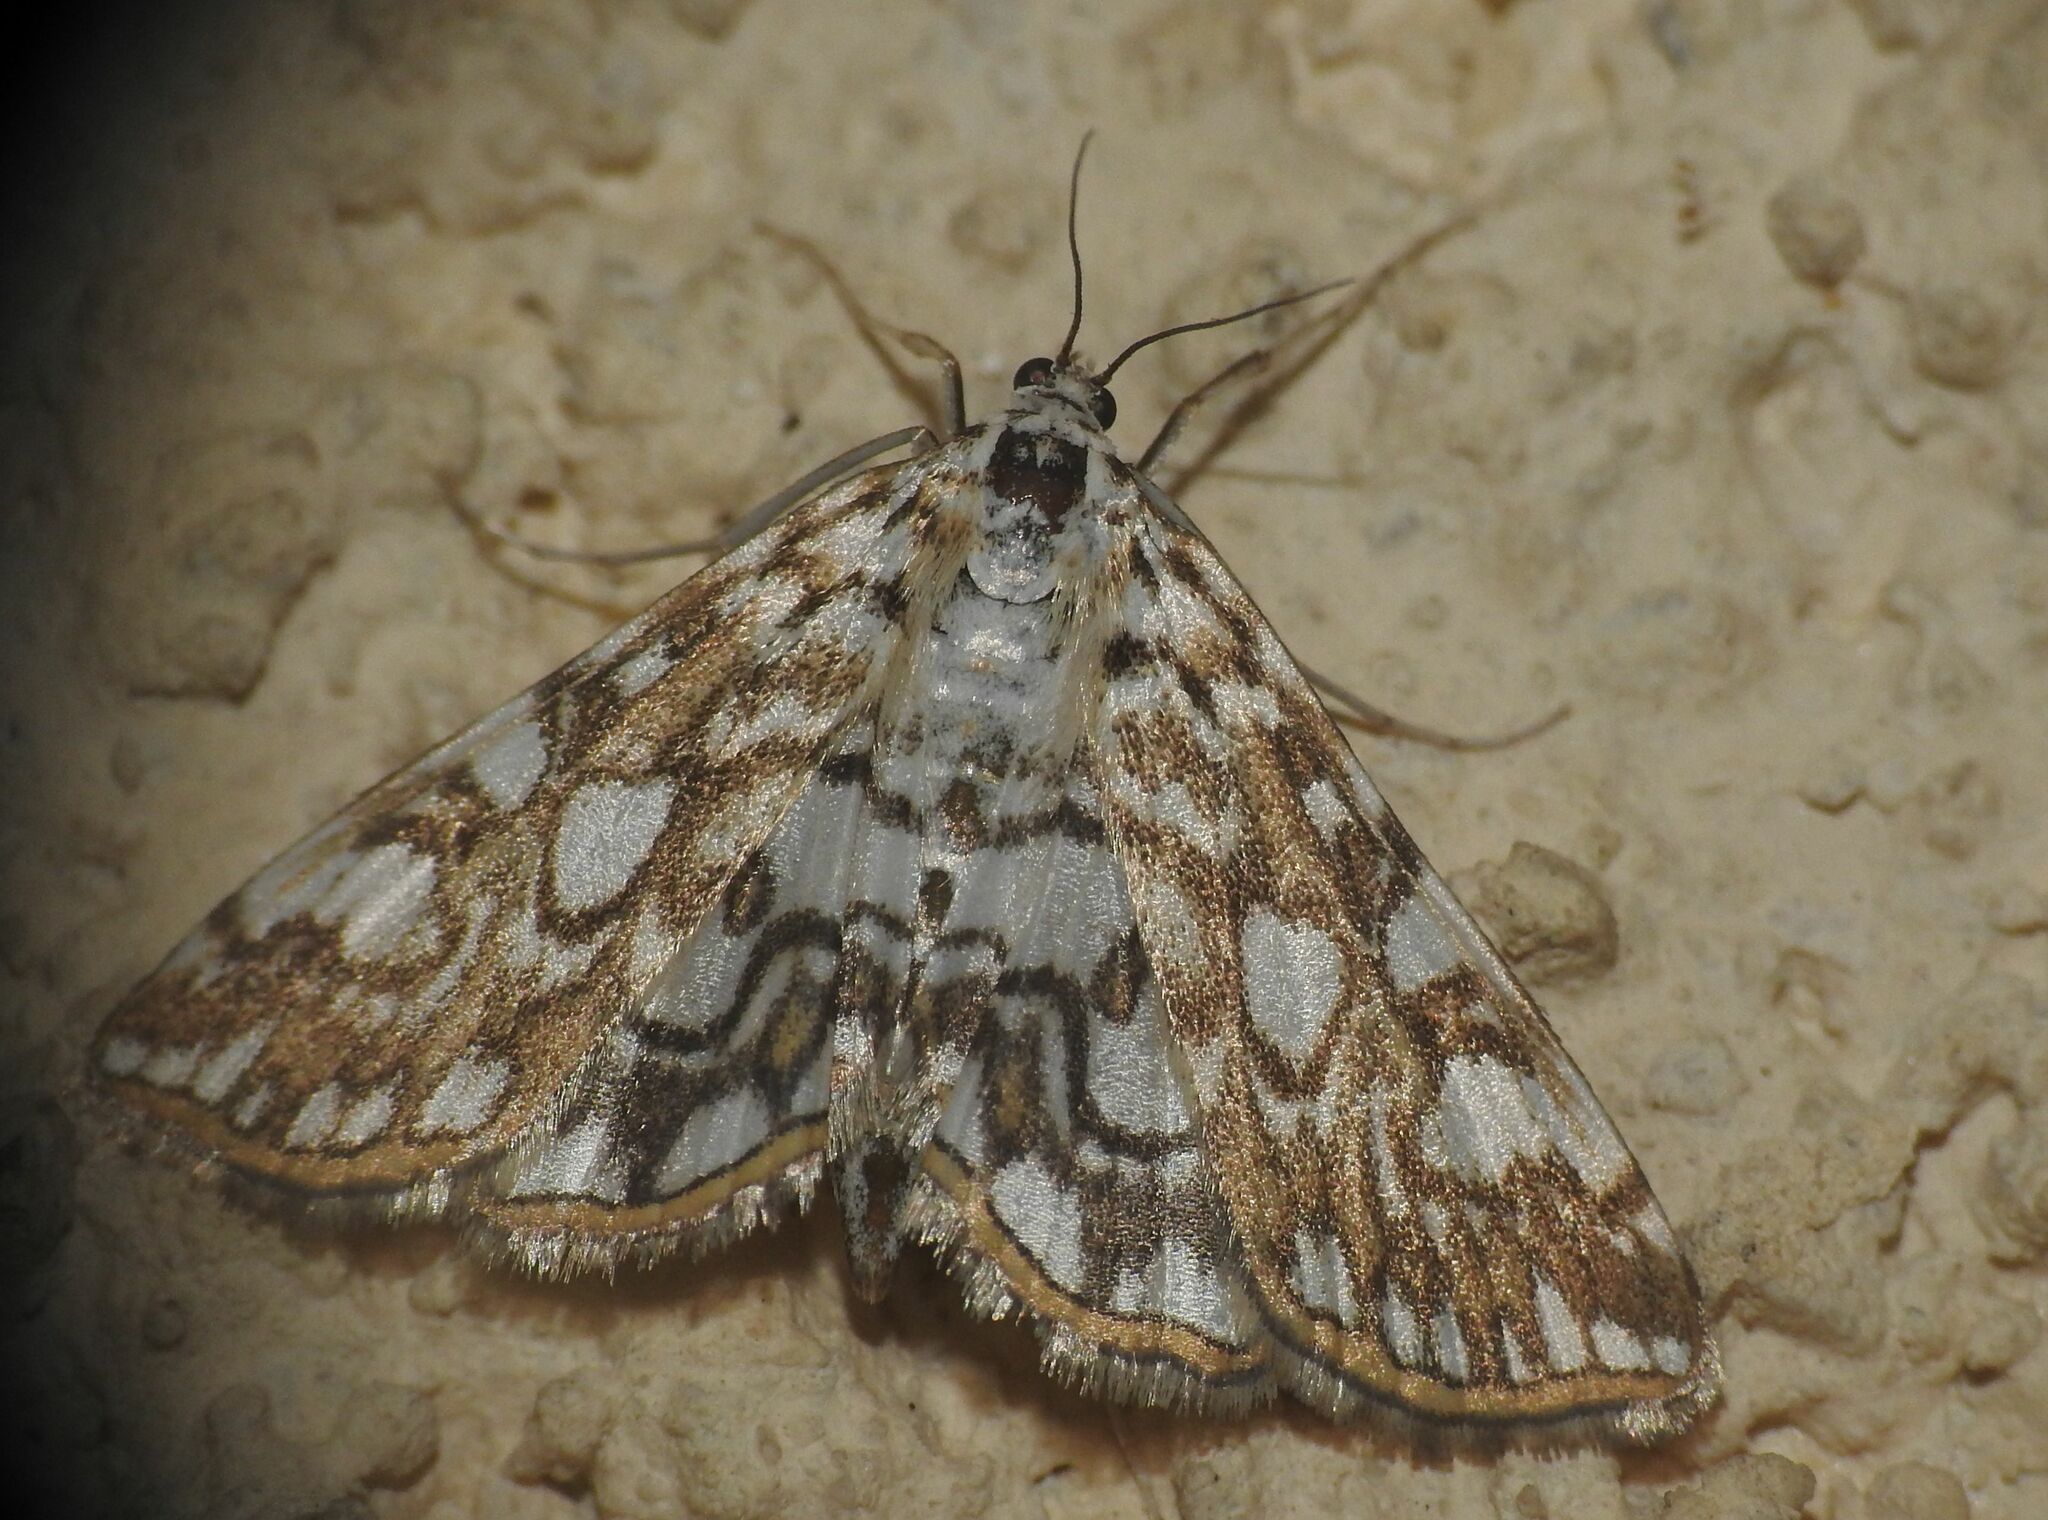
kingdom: Animalia
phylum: Arthropoda
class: Insecta
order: Lepidoptera
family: Crambidae
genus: Elophila
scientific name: Elophila nymphaeata
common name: Brown china-mark
